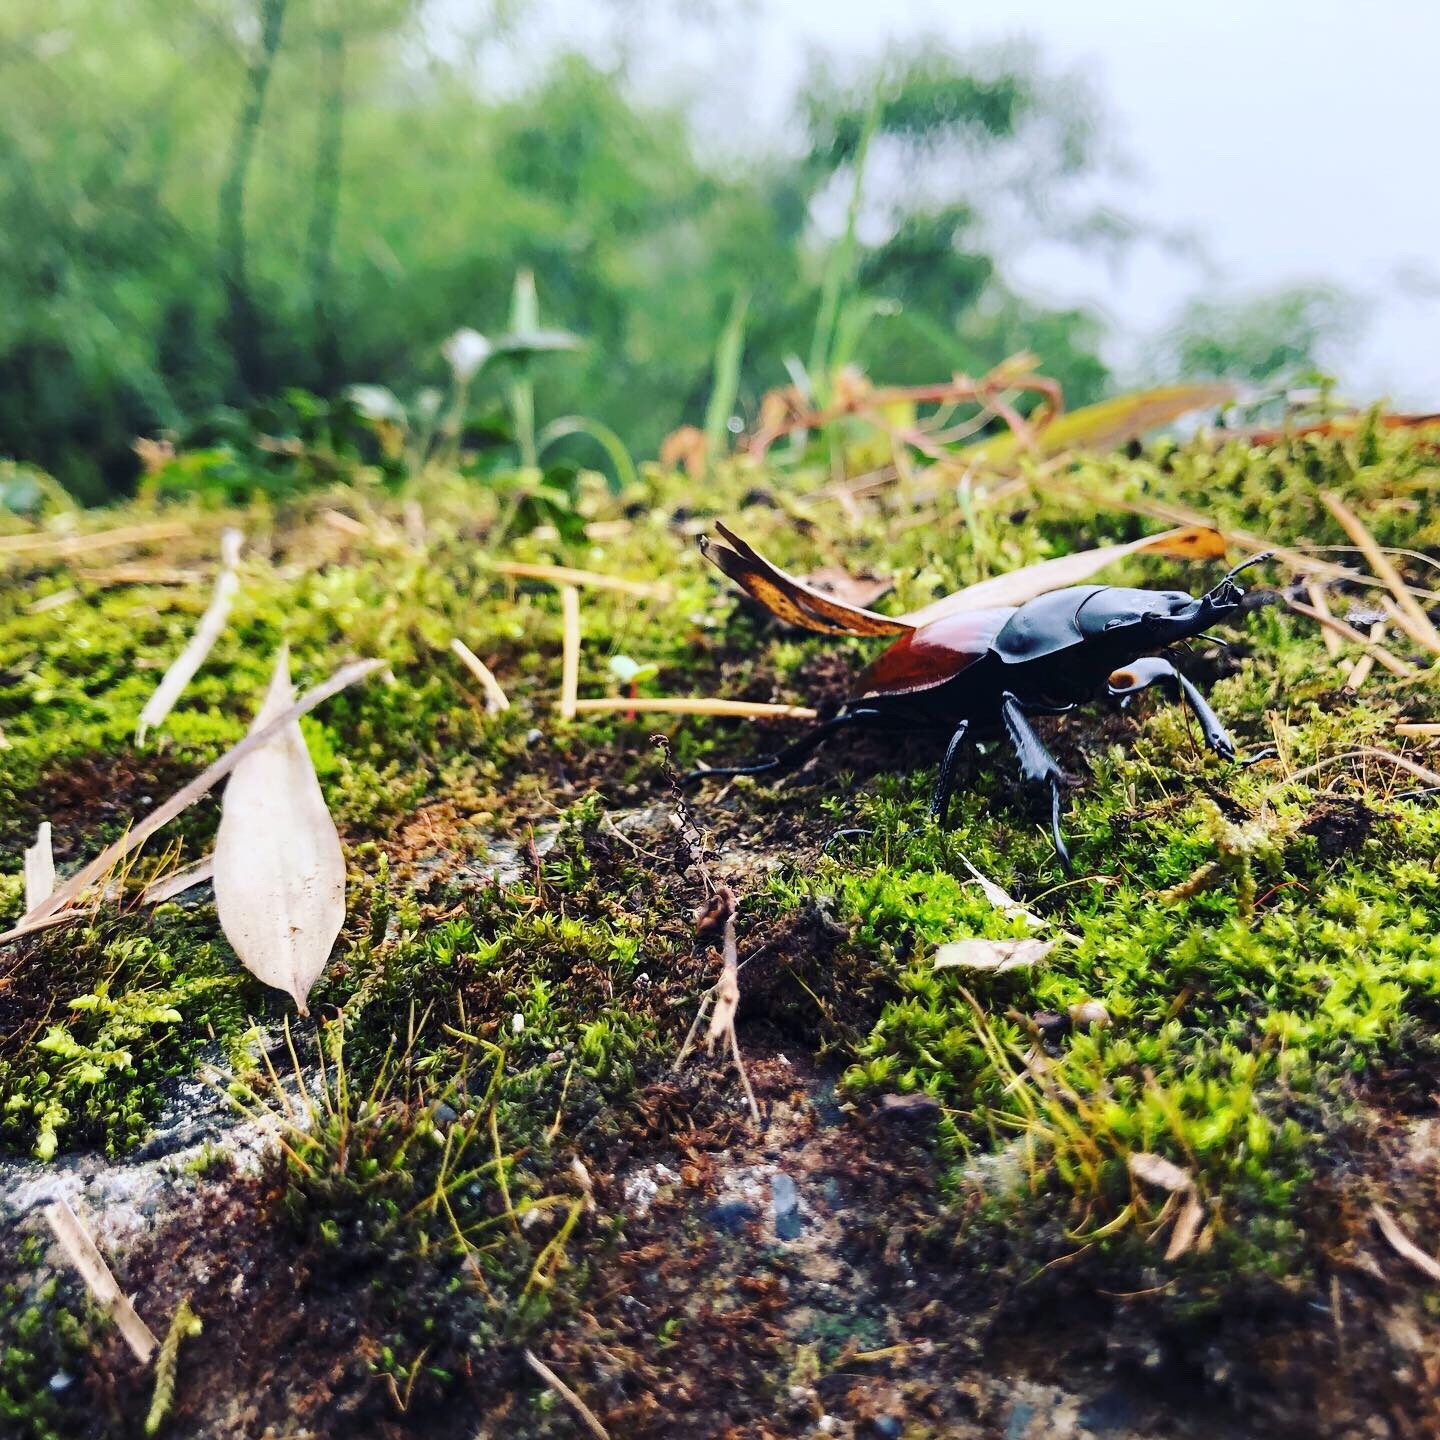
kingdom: Animalia
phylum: Arthropoda
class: Insecta
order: Coleoptera
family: Lucanidae
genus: Neolucanus
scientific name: Neolucanus swinhoei
